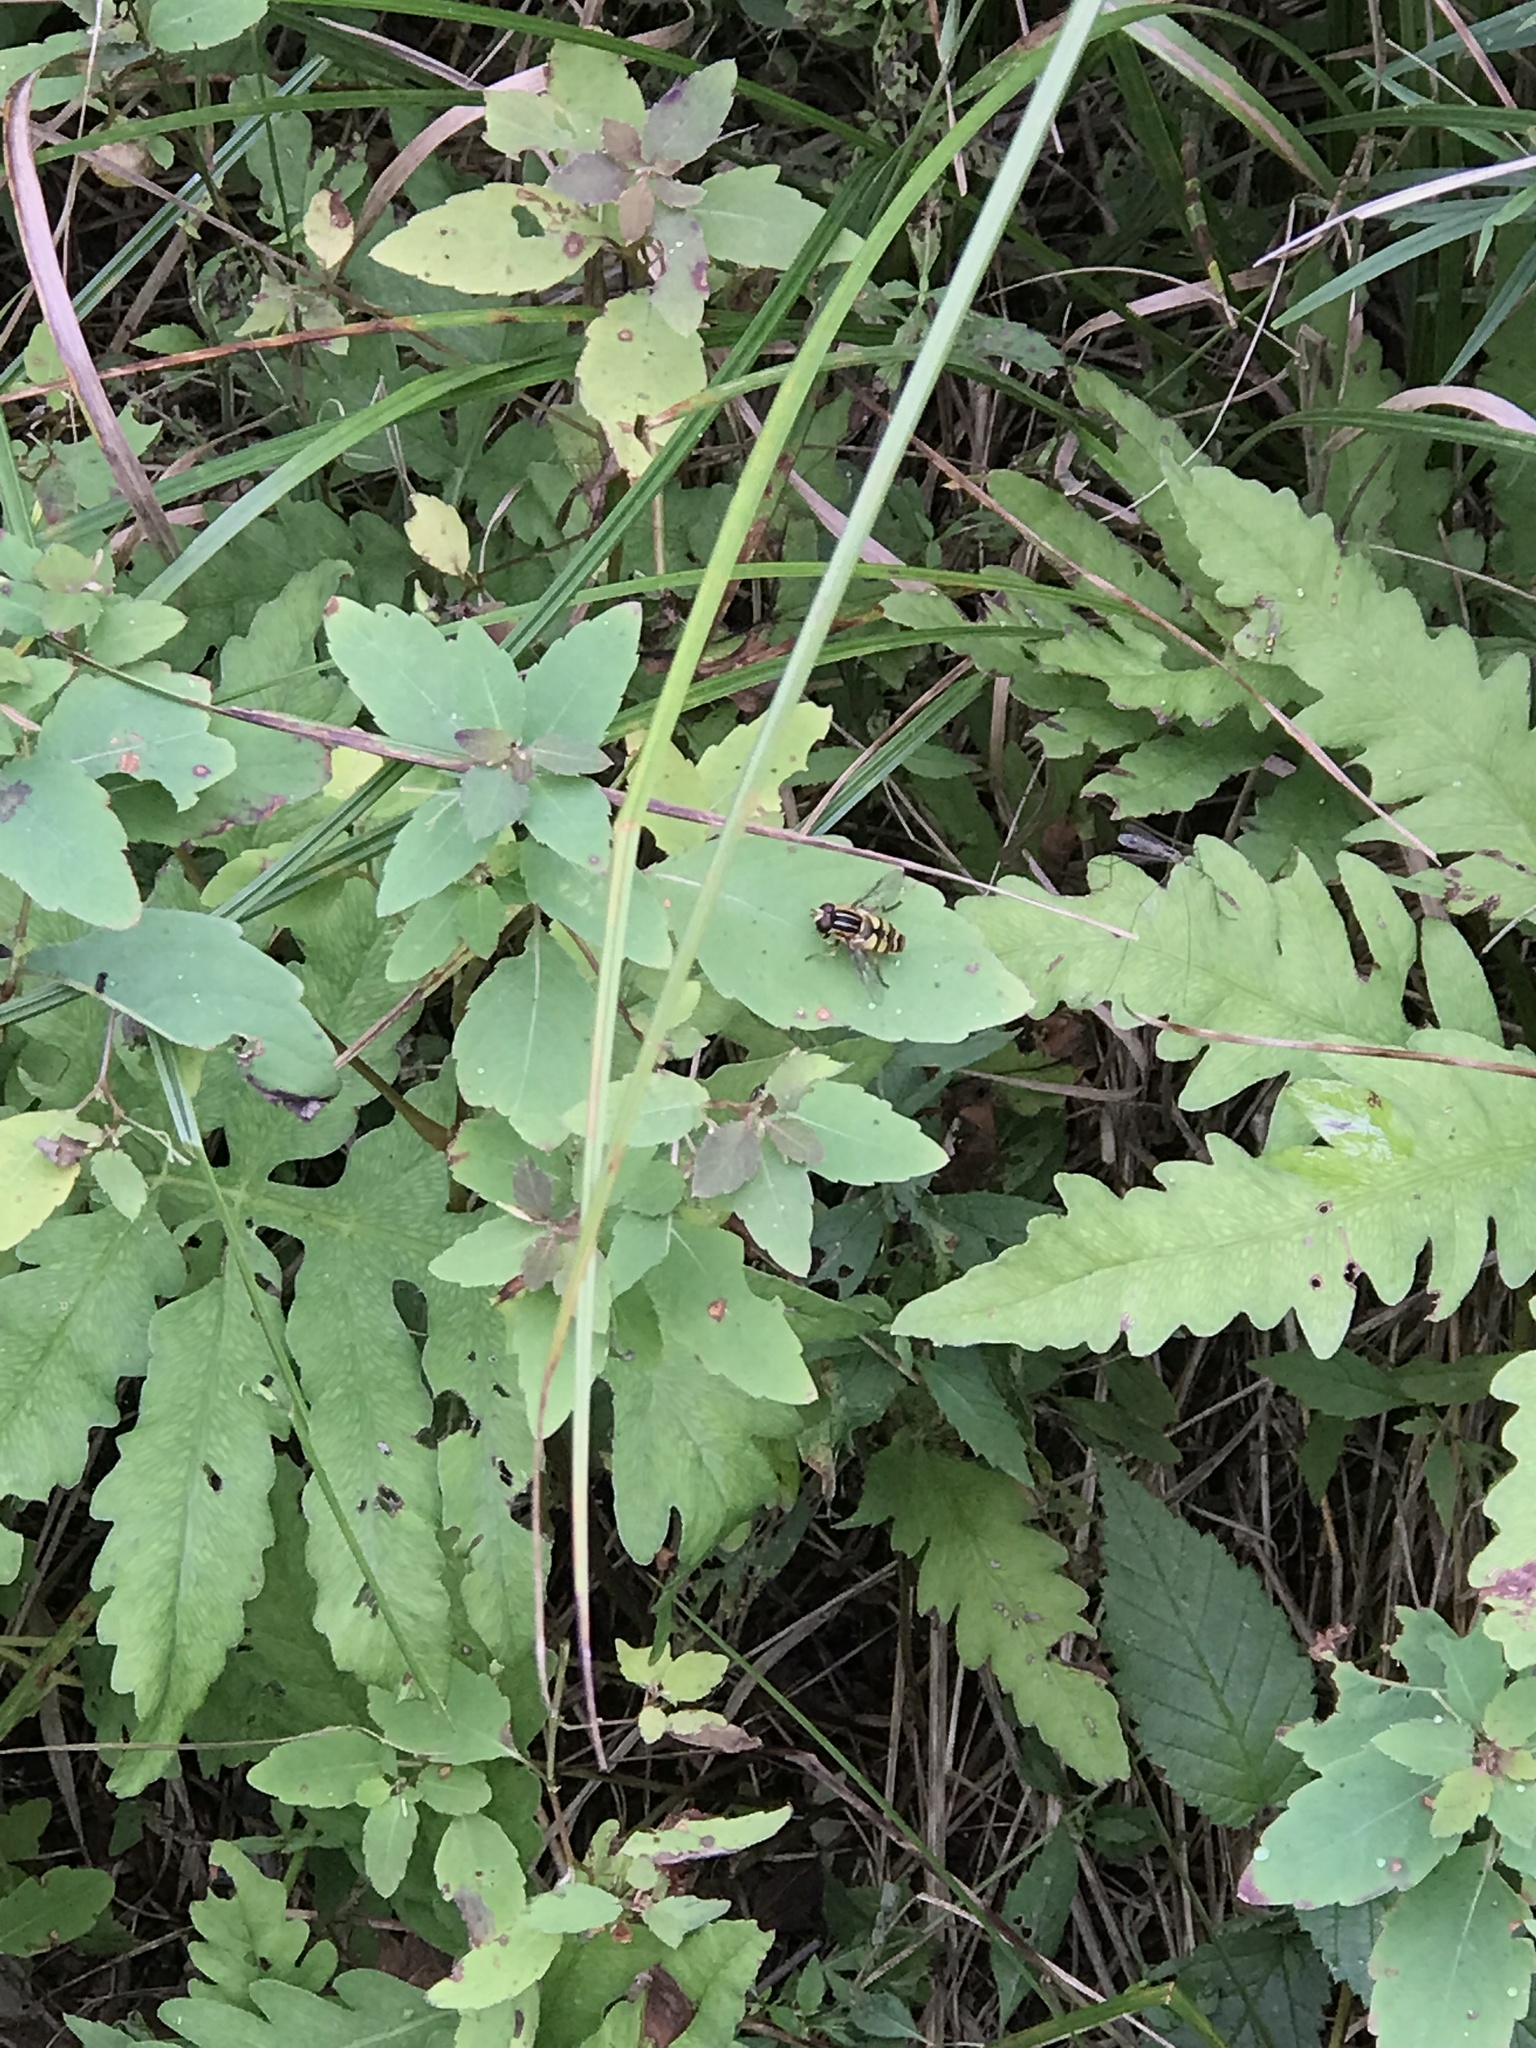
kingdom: Animalia
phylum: Arthropoda
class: Insecta
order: Diptera
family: Syrphidae
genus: Helophilus
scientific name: Helophilus fasciatus
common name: Narrow-headed marsh fly
